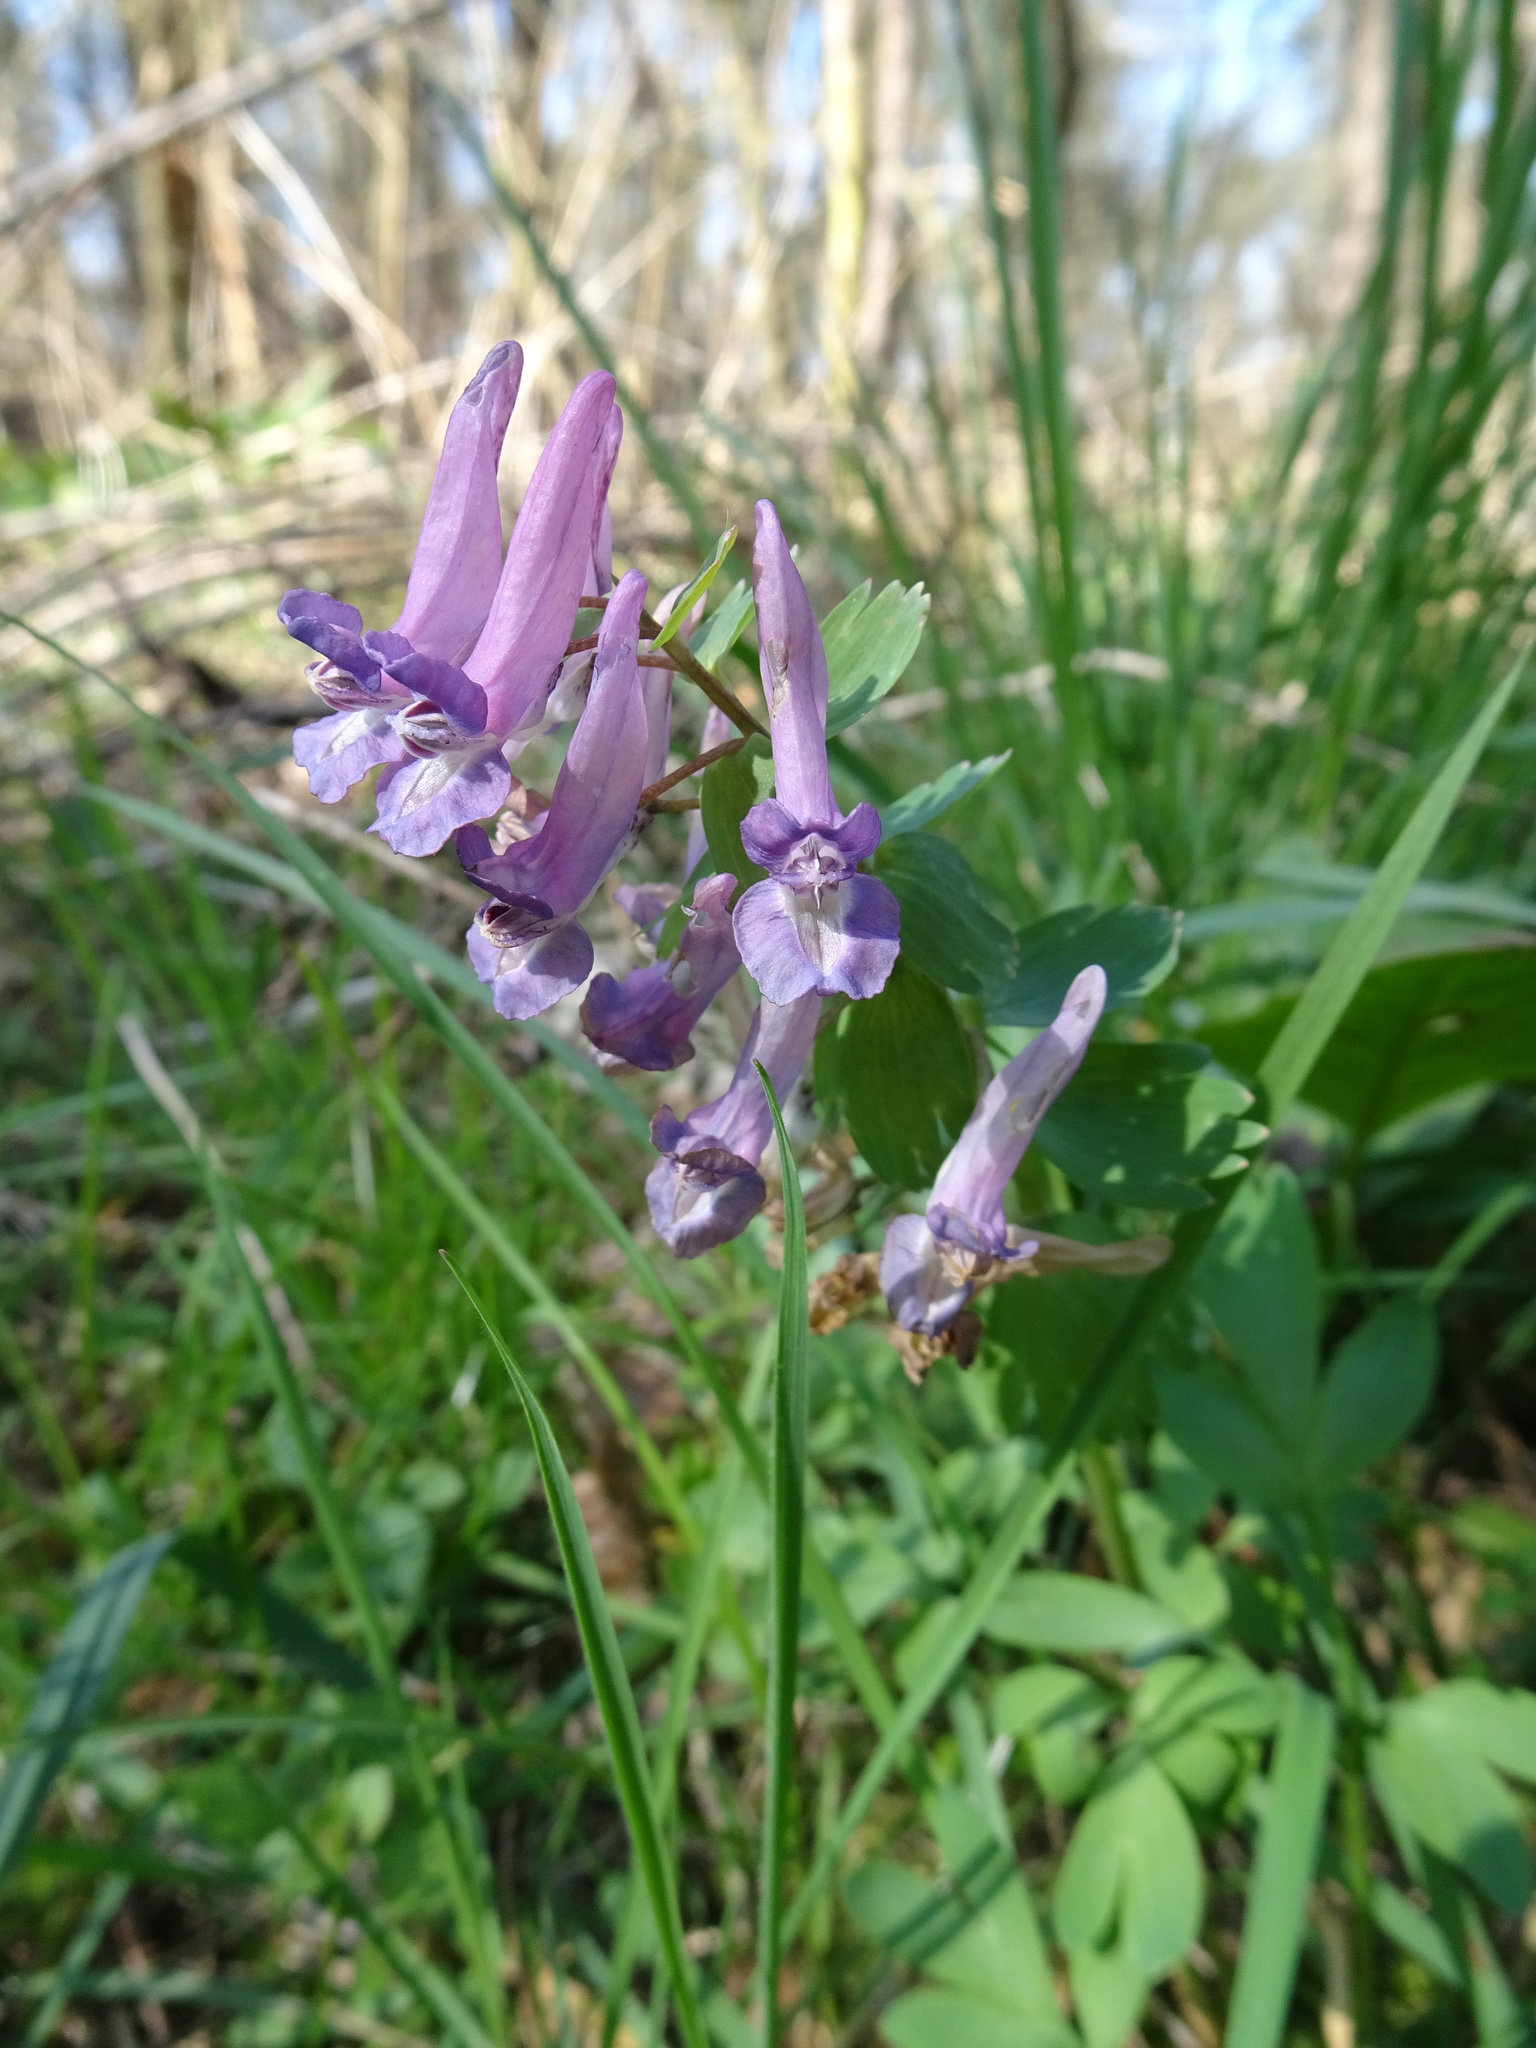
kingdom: Plantae
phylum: Tracheophyta
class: Magnoliopsida
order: Ranunculales
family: Papaveraceae
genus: Corydalis
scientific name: Corydalis solida
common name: Bird-in-a-bush
